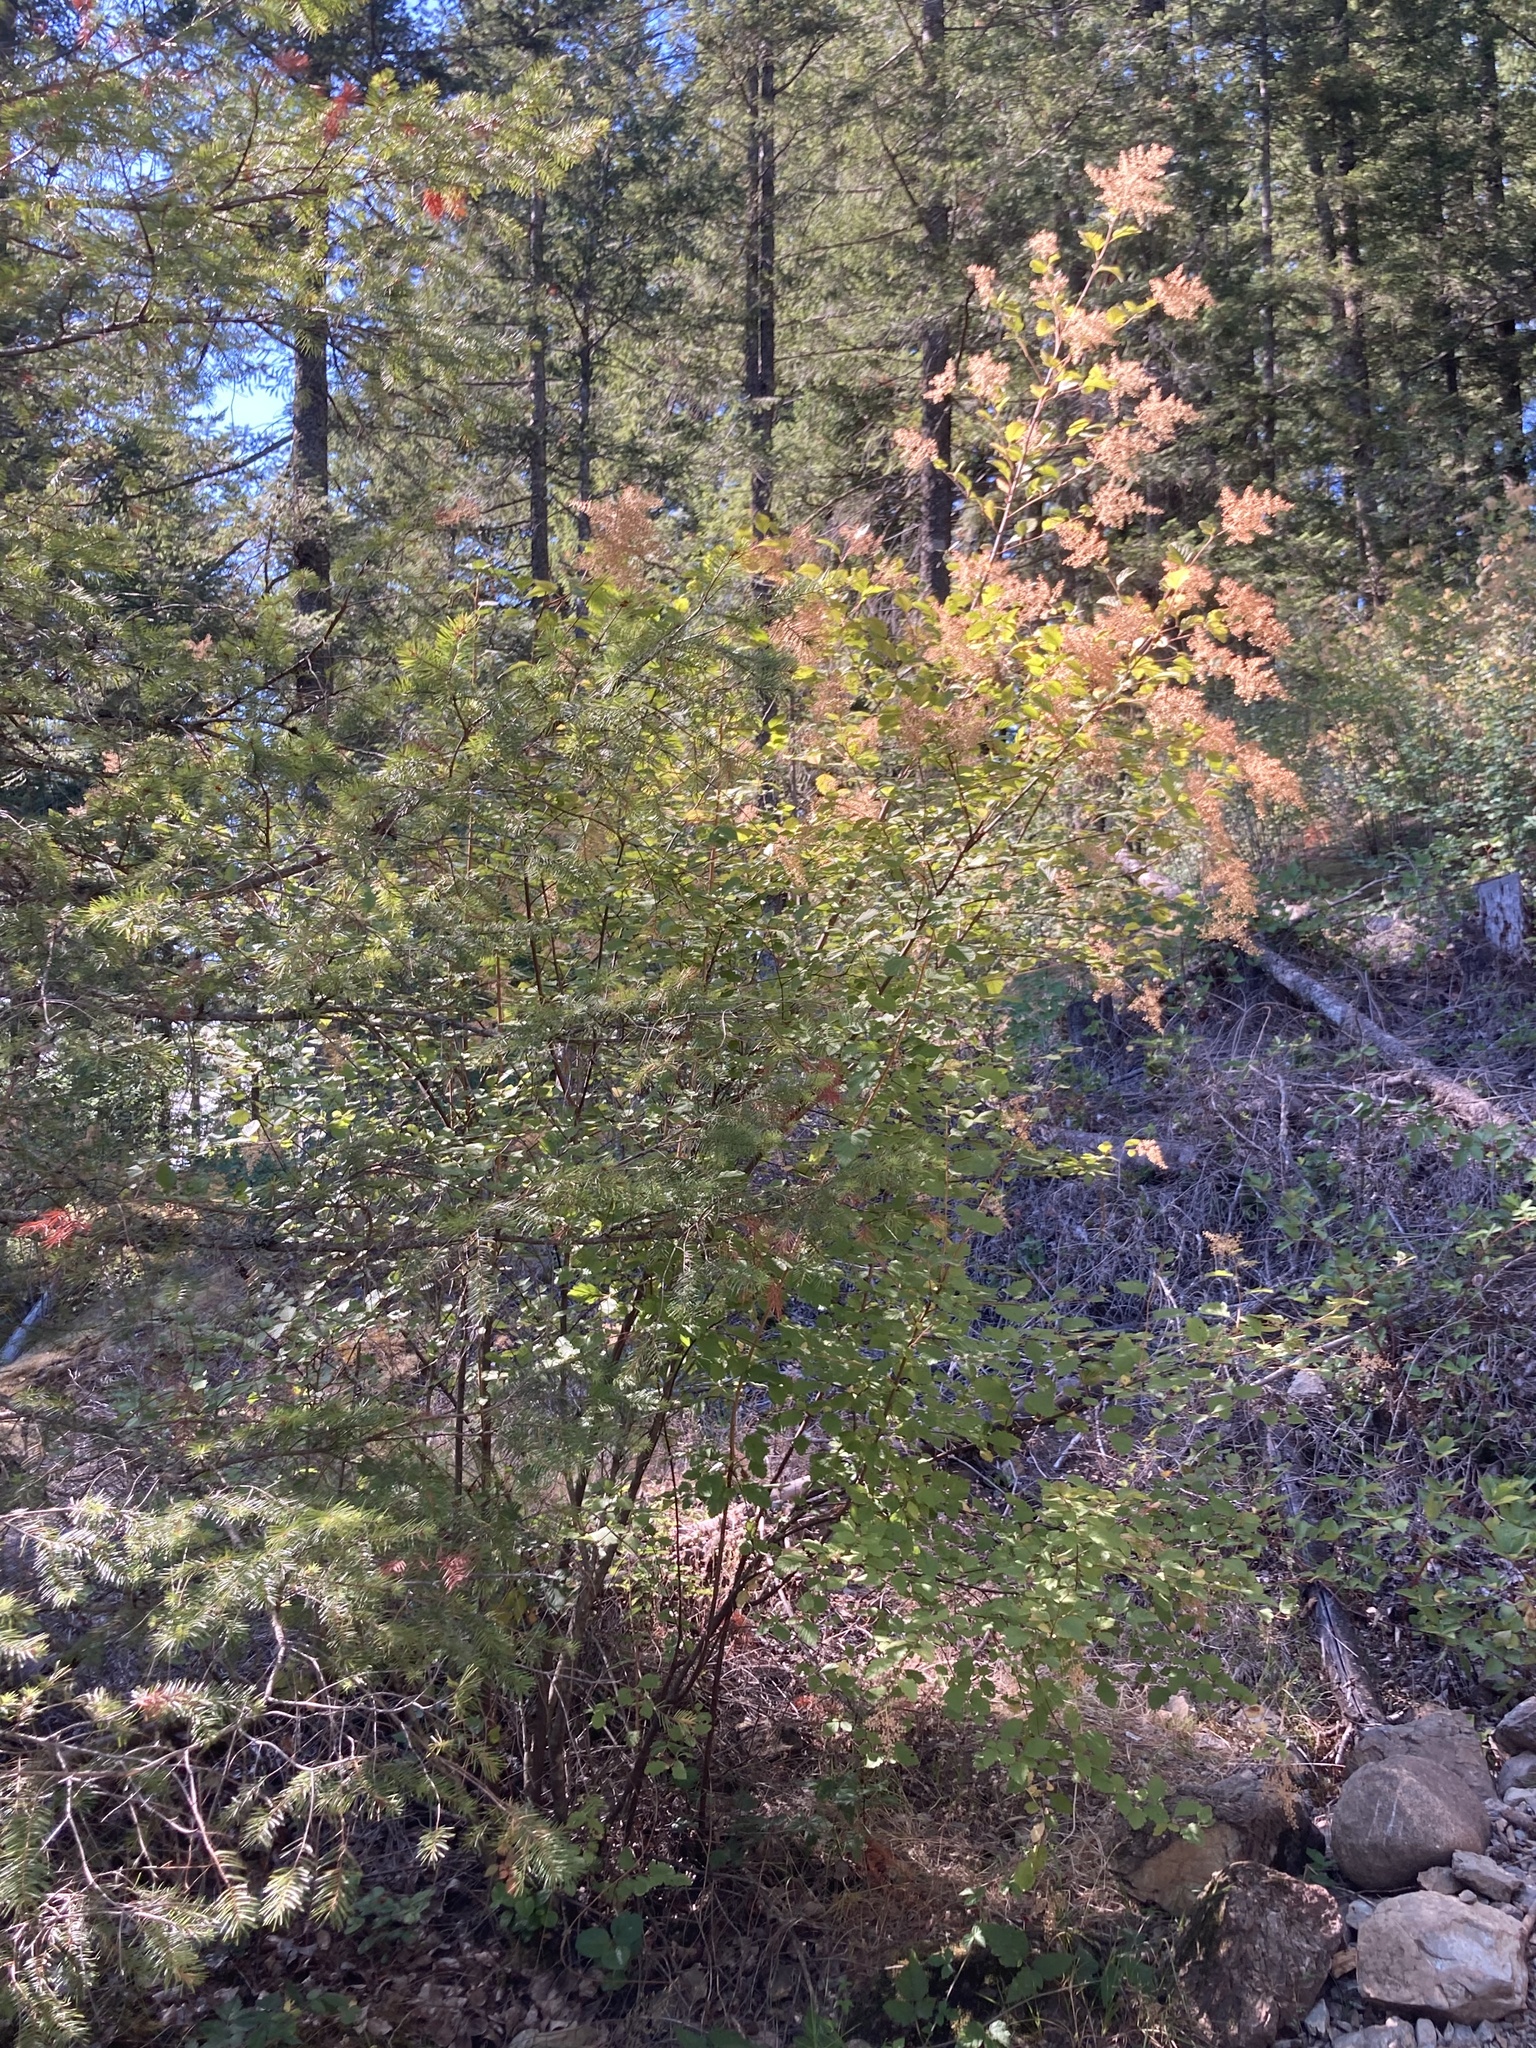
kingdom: Plantae
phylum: Tracheophyta
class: Magnoliopsida
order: Rosales
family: Rosaceae
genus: Holodiscus
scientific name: Holodiscus discolor
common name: Oceanspray
